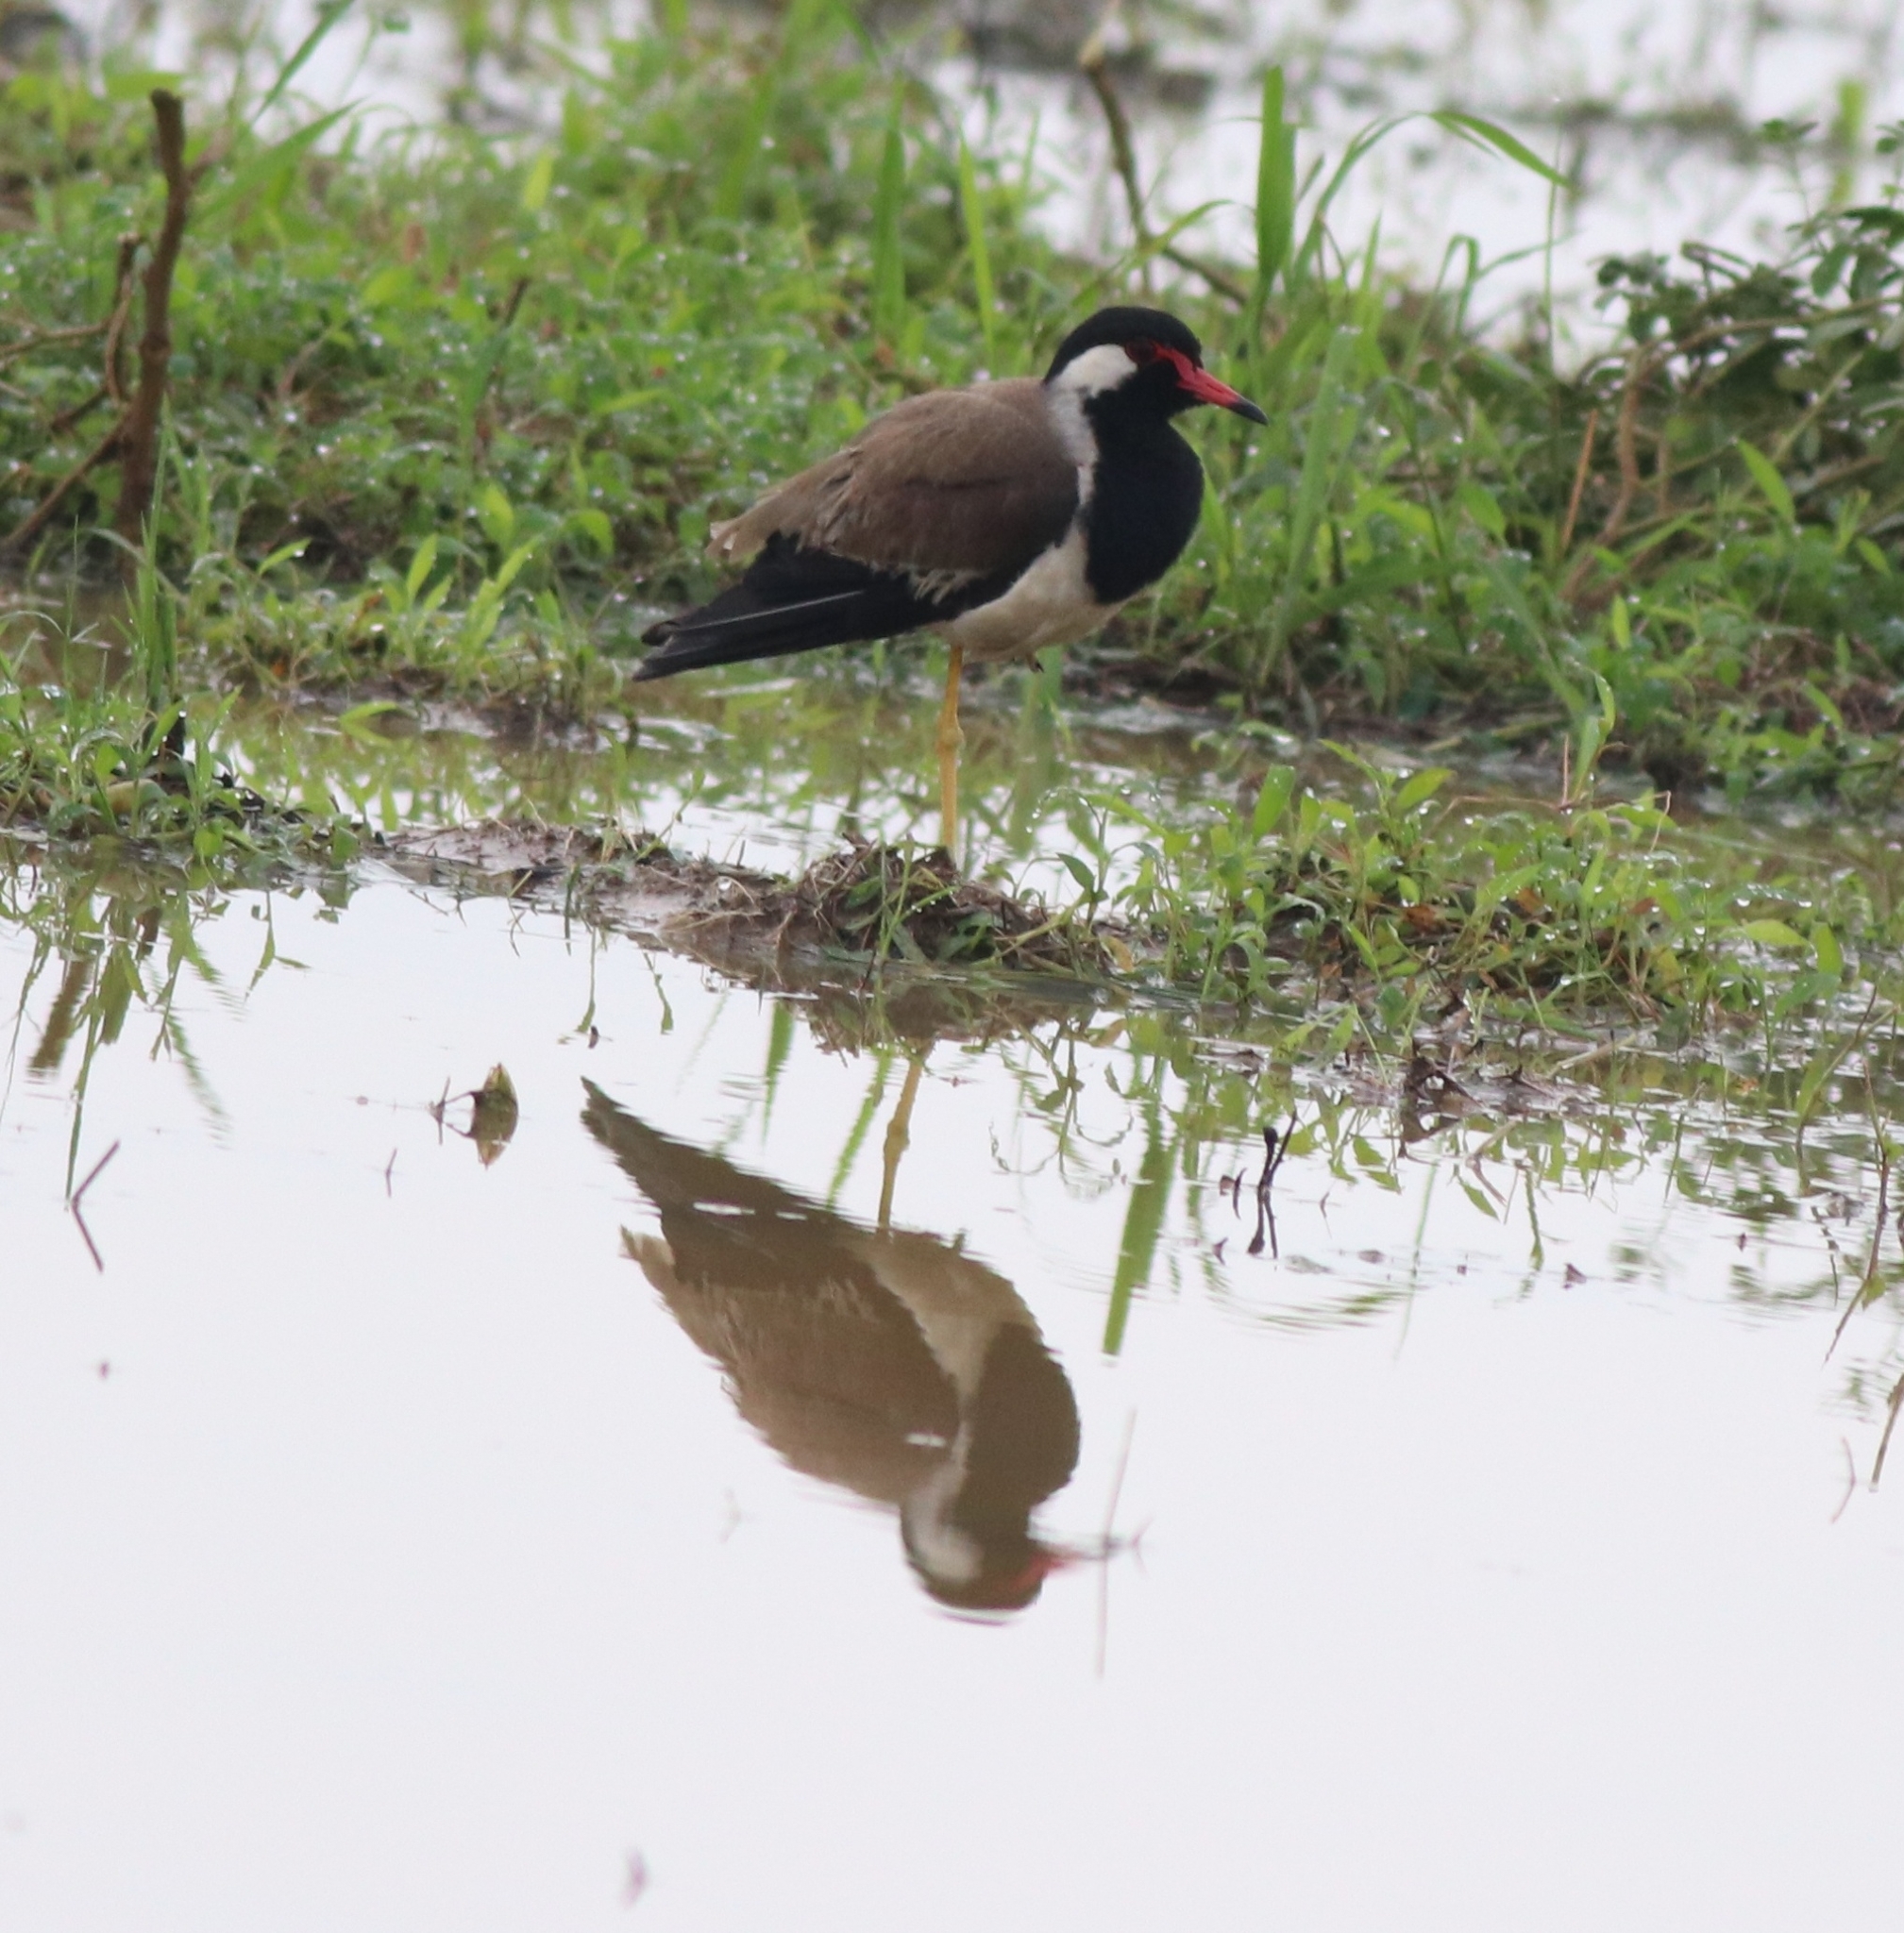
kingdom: Animalia
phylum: Chordata
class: Aves
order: Charadriiformes
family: Charadriidae
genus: Vanellus
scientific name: Vanellus indicus
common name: Red-wattled lapwing
